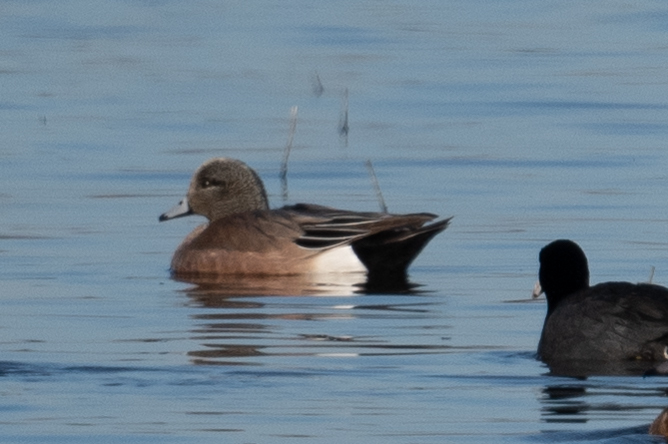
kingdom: Animalia
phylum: Chordata
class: Aves
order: Anseriformes
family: Anatidae
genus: Mareca
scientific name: Mareca americana
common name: American wigeon
